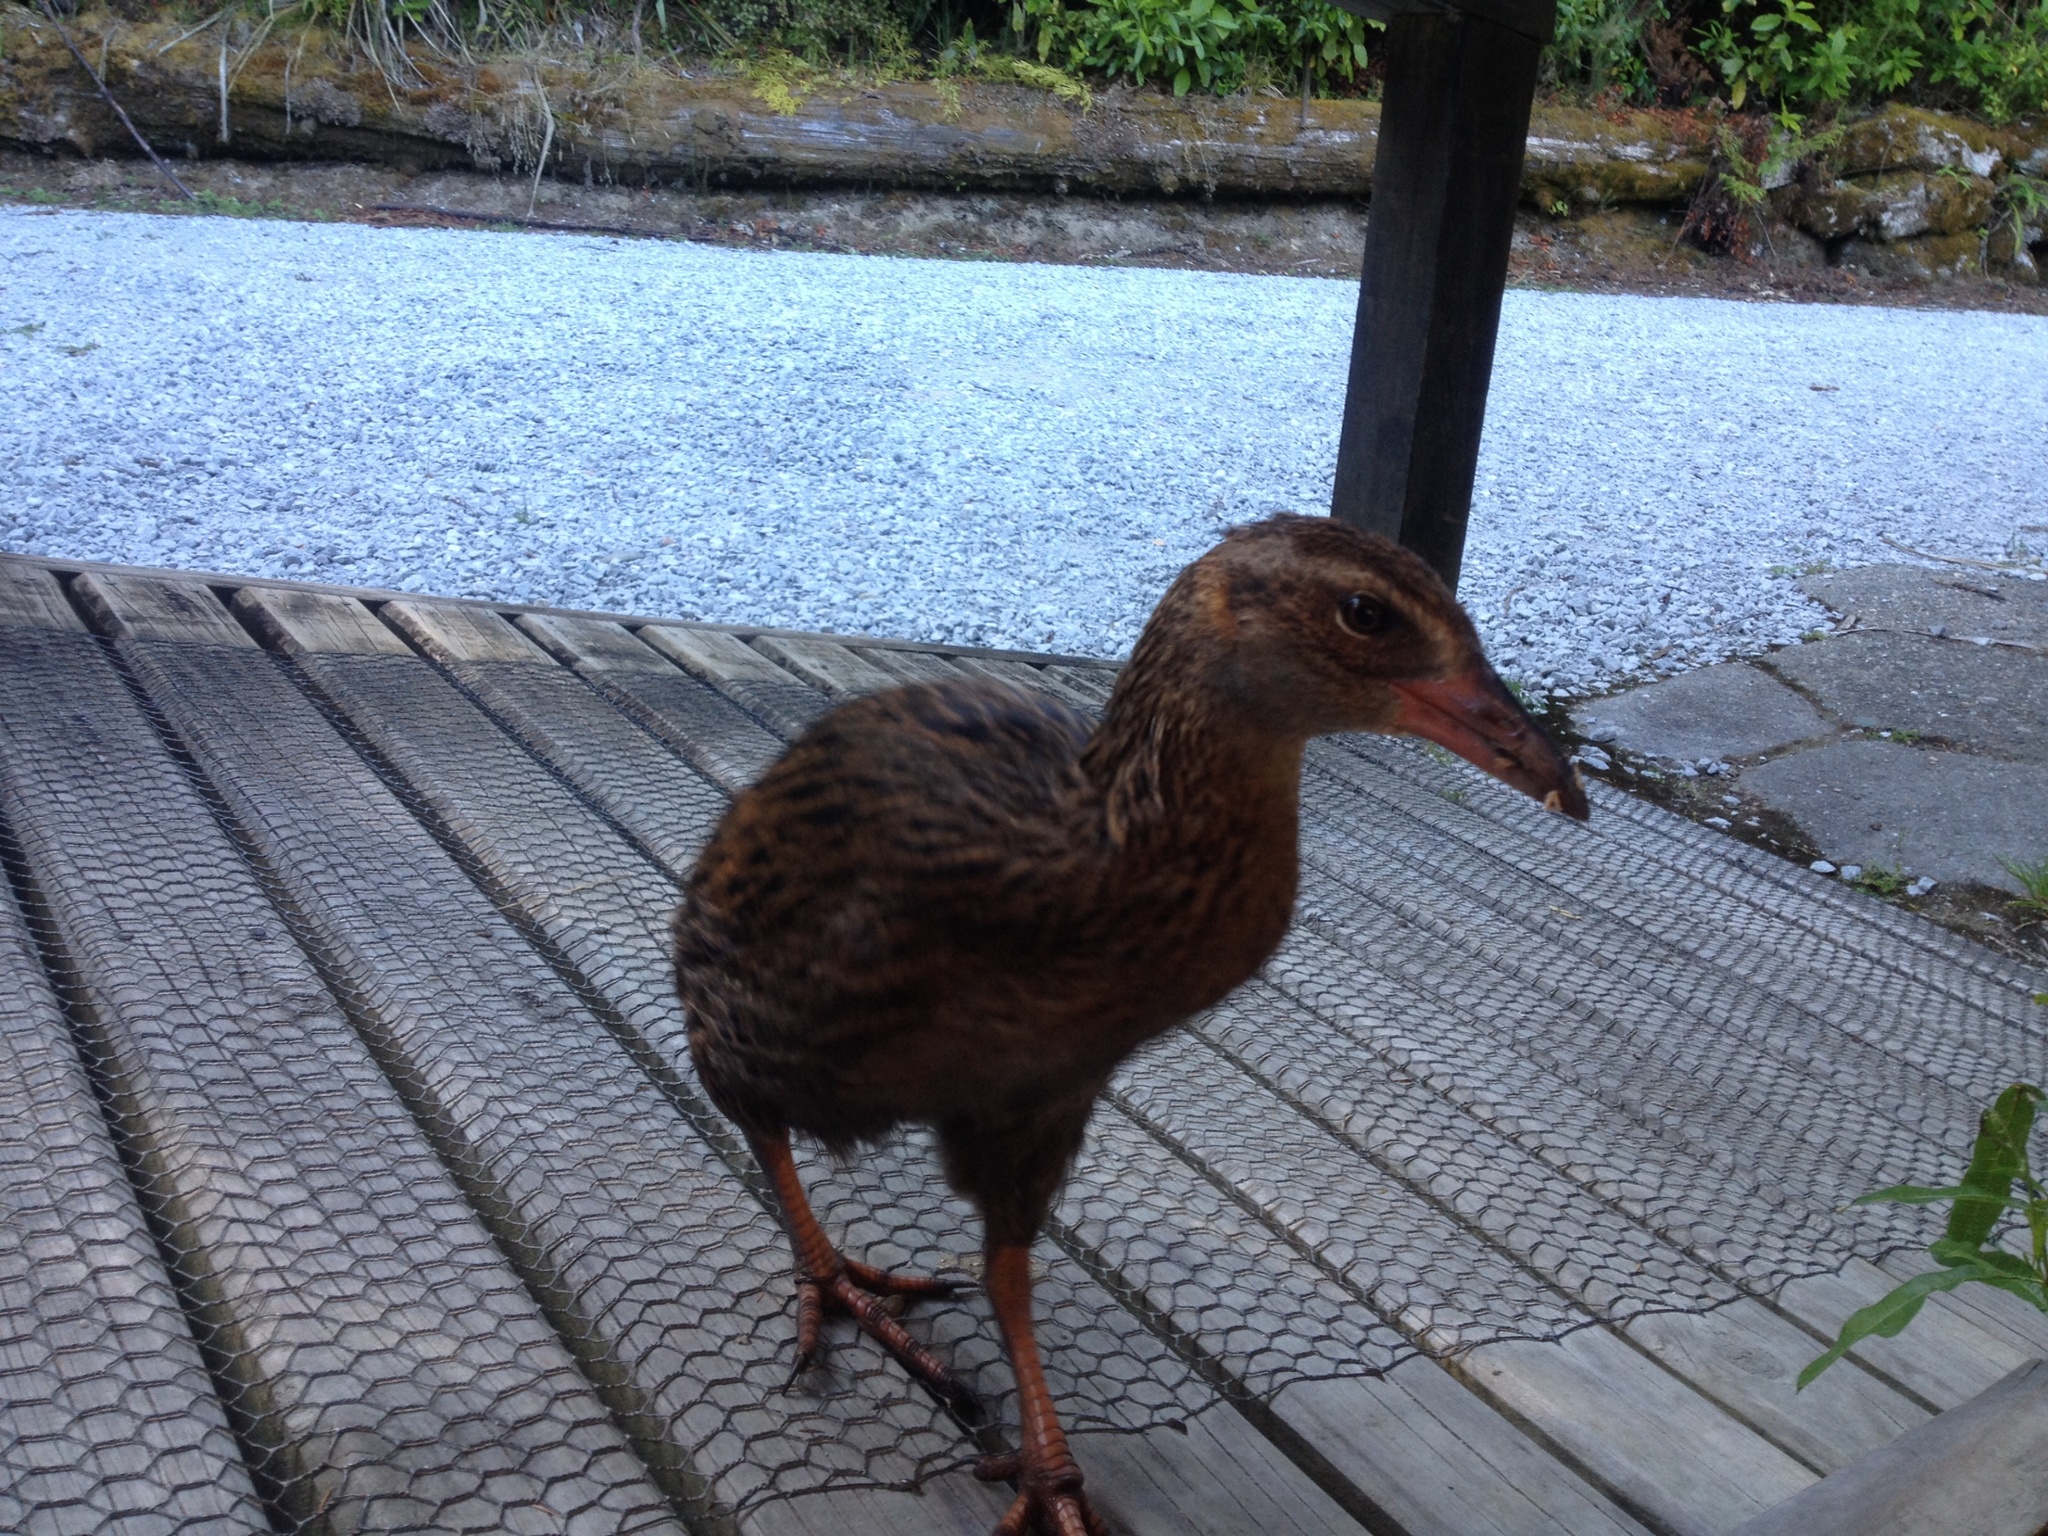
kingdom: Animalia
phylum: Chordata
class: Aves
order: Gruiformes
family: Rallidae
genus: Gallirallus
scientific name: Gallirallus australis
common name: Weka
